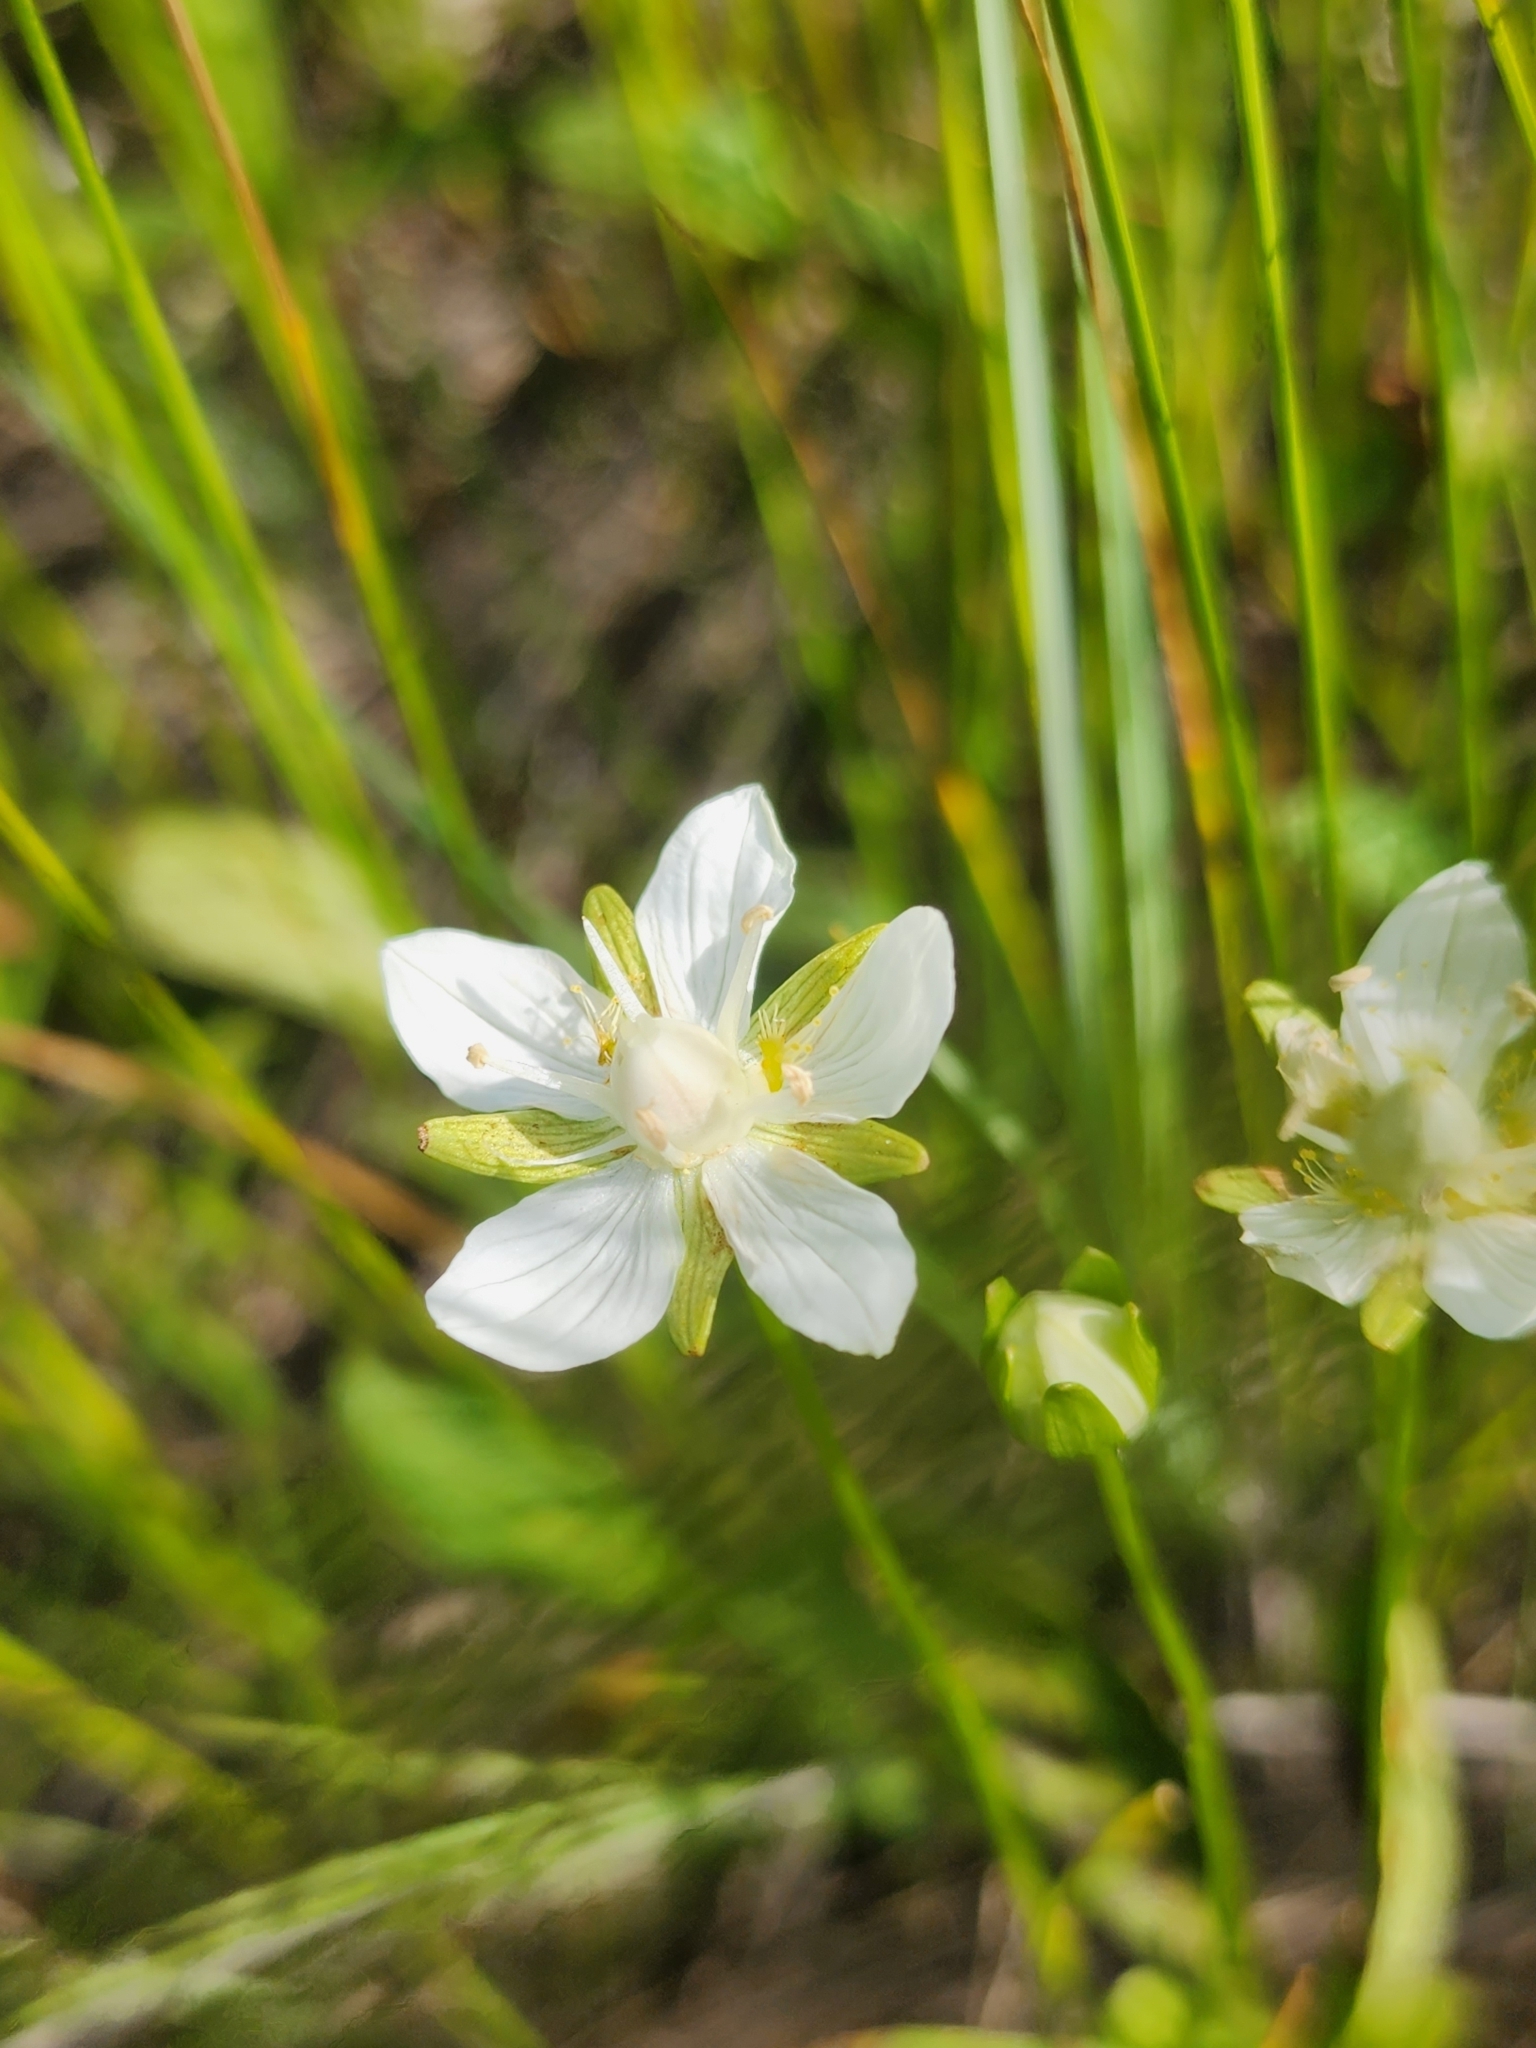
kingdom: Plantae
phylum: Tracheophyta
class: Magnoliopsida
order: Celastrales
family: Parnassiaceae
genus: Parnassia
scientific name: Parnassia palustris
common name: Grass-of-parnassus
